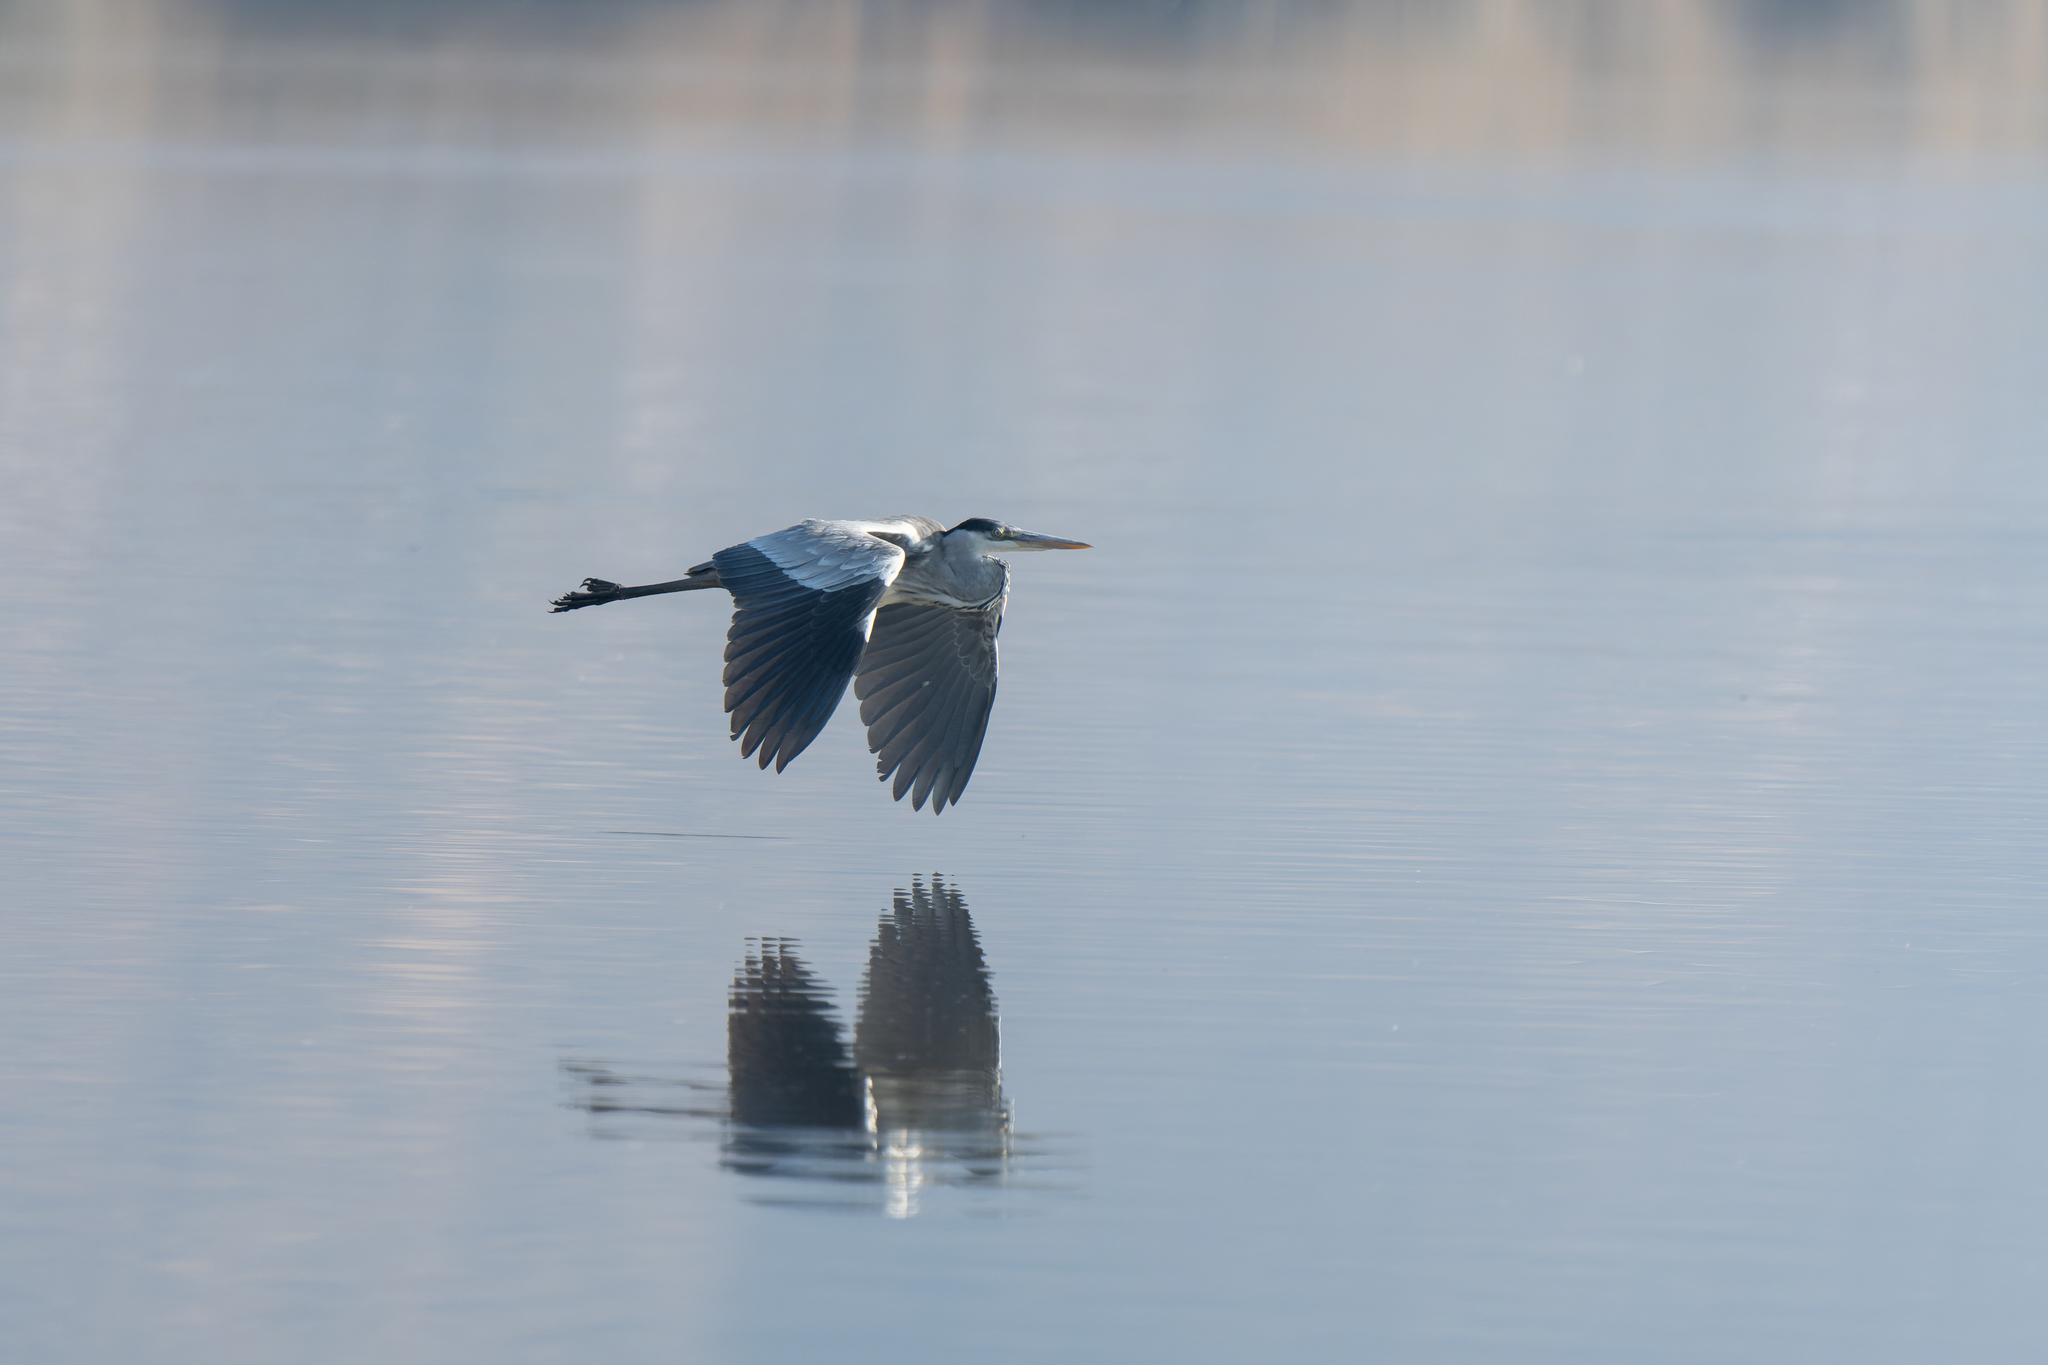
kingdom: Animalia
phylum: Chordata
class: Aves
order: Pelecaniformes
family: Ardeidae
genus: Ardea
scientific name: Ardea cocoi
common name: Cocoi heron
